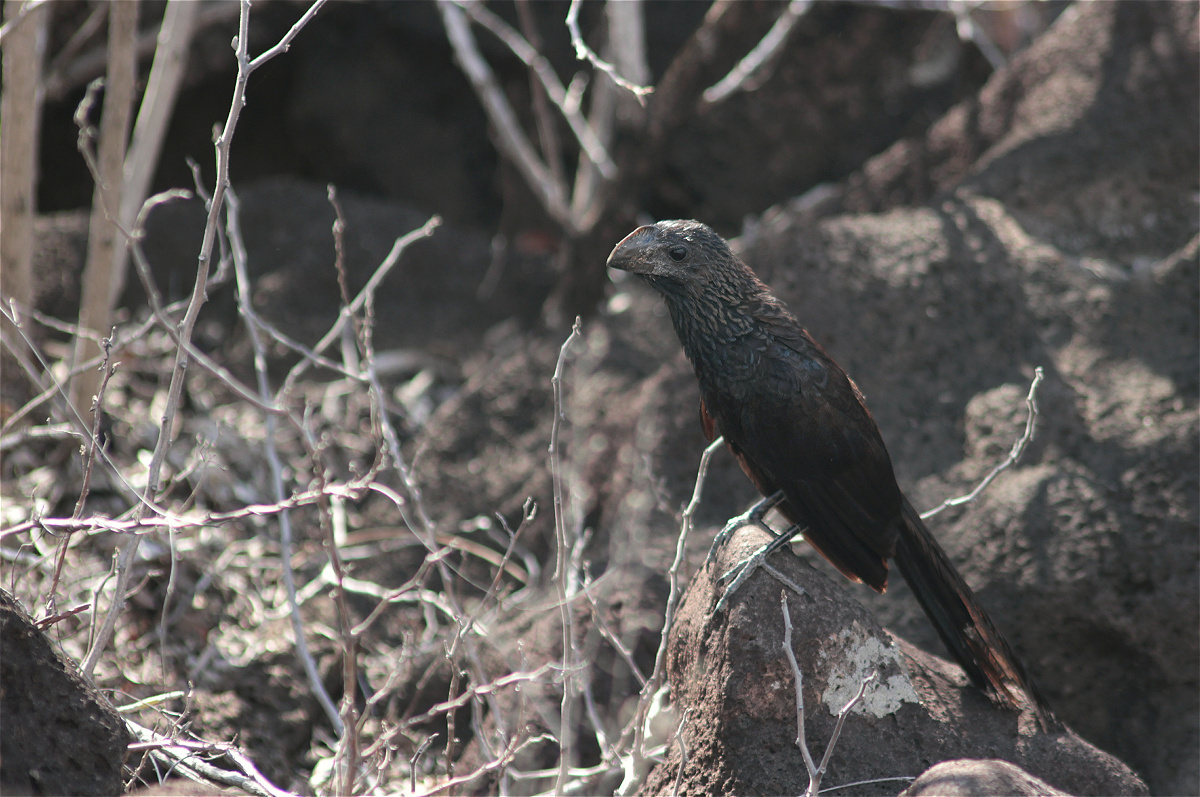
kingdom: Animalia
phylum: Chordata
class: Aves
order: Cuculiformes
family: Cuculidae
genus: Crotophaga
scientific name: Crotophaga ani
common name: Smooth-billed ani
